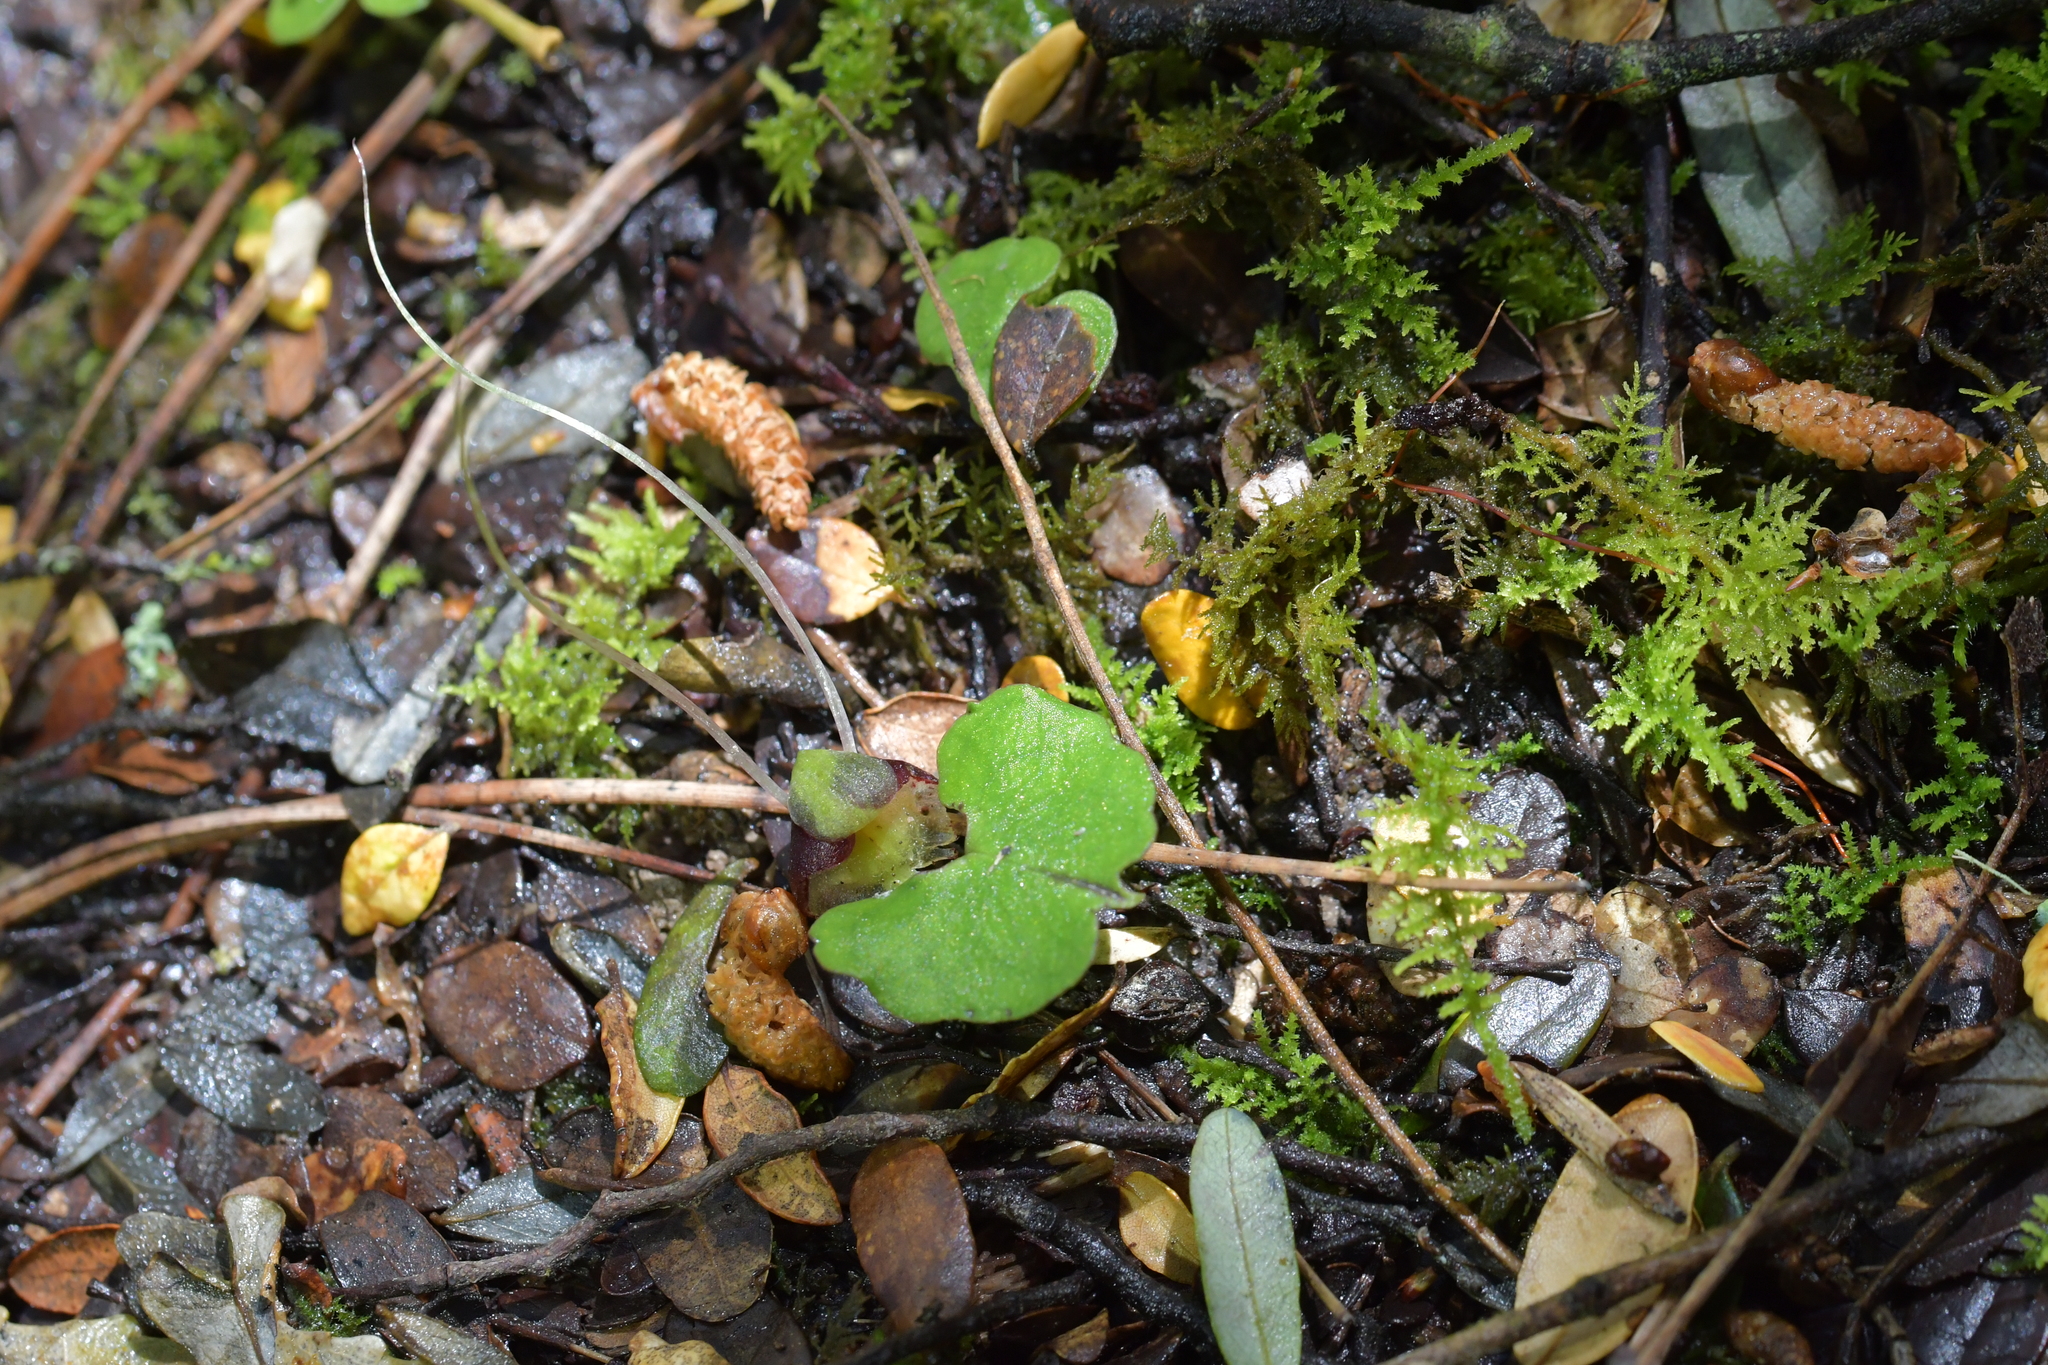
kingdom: Plantae
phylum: Tracheophyta
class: Liliopsida
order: Asparagales
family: Orchidaceae
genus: Corybas
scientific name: Corybas vitreus
